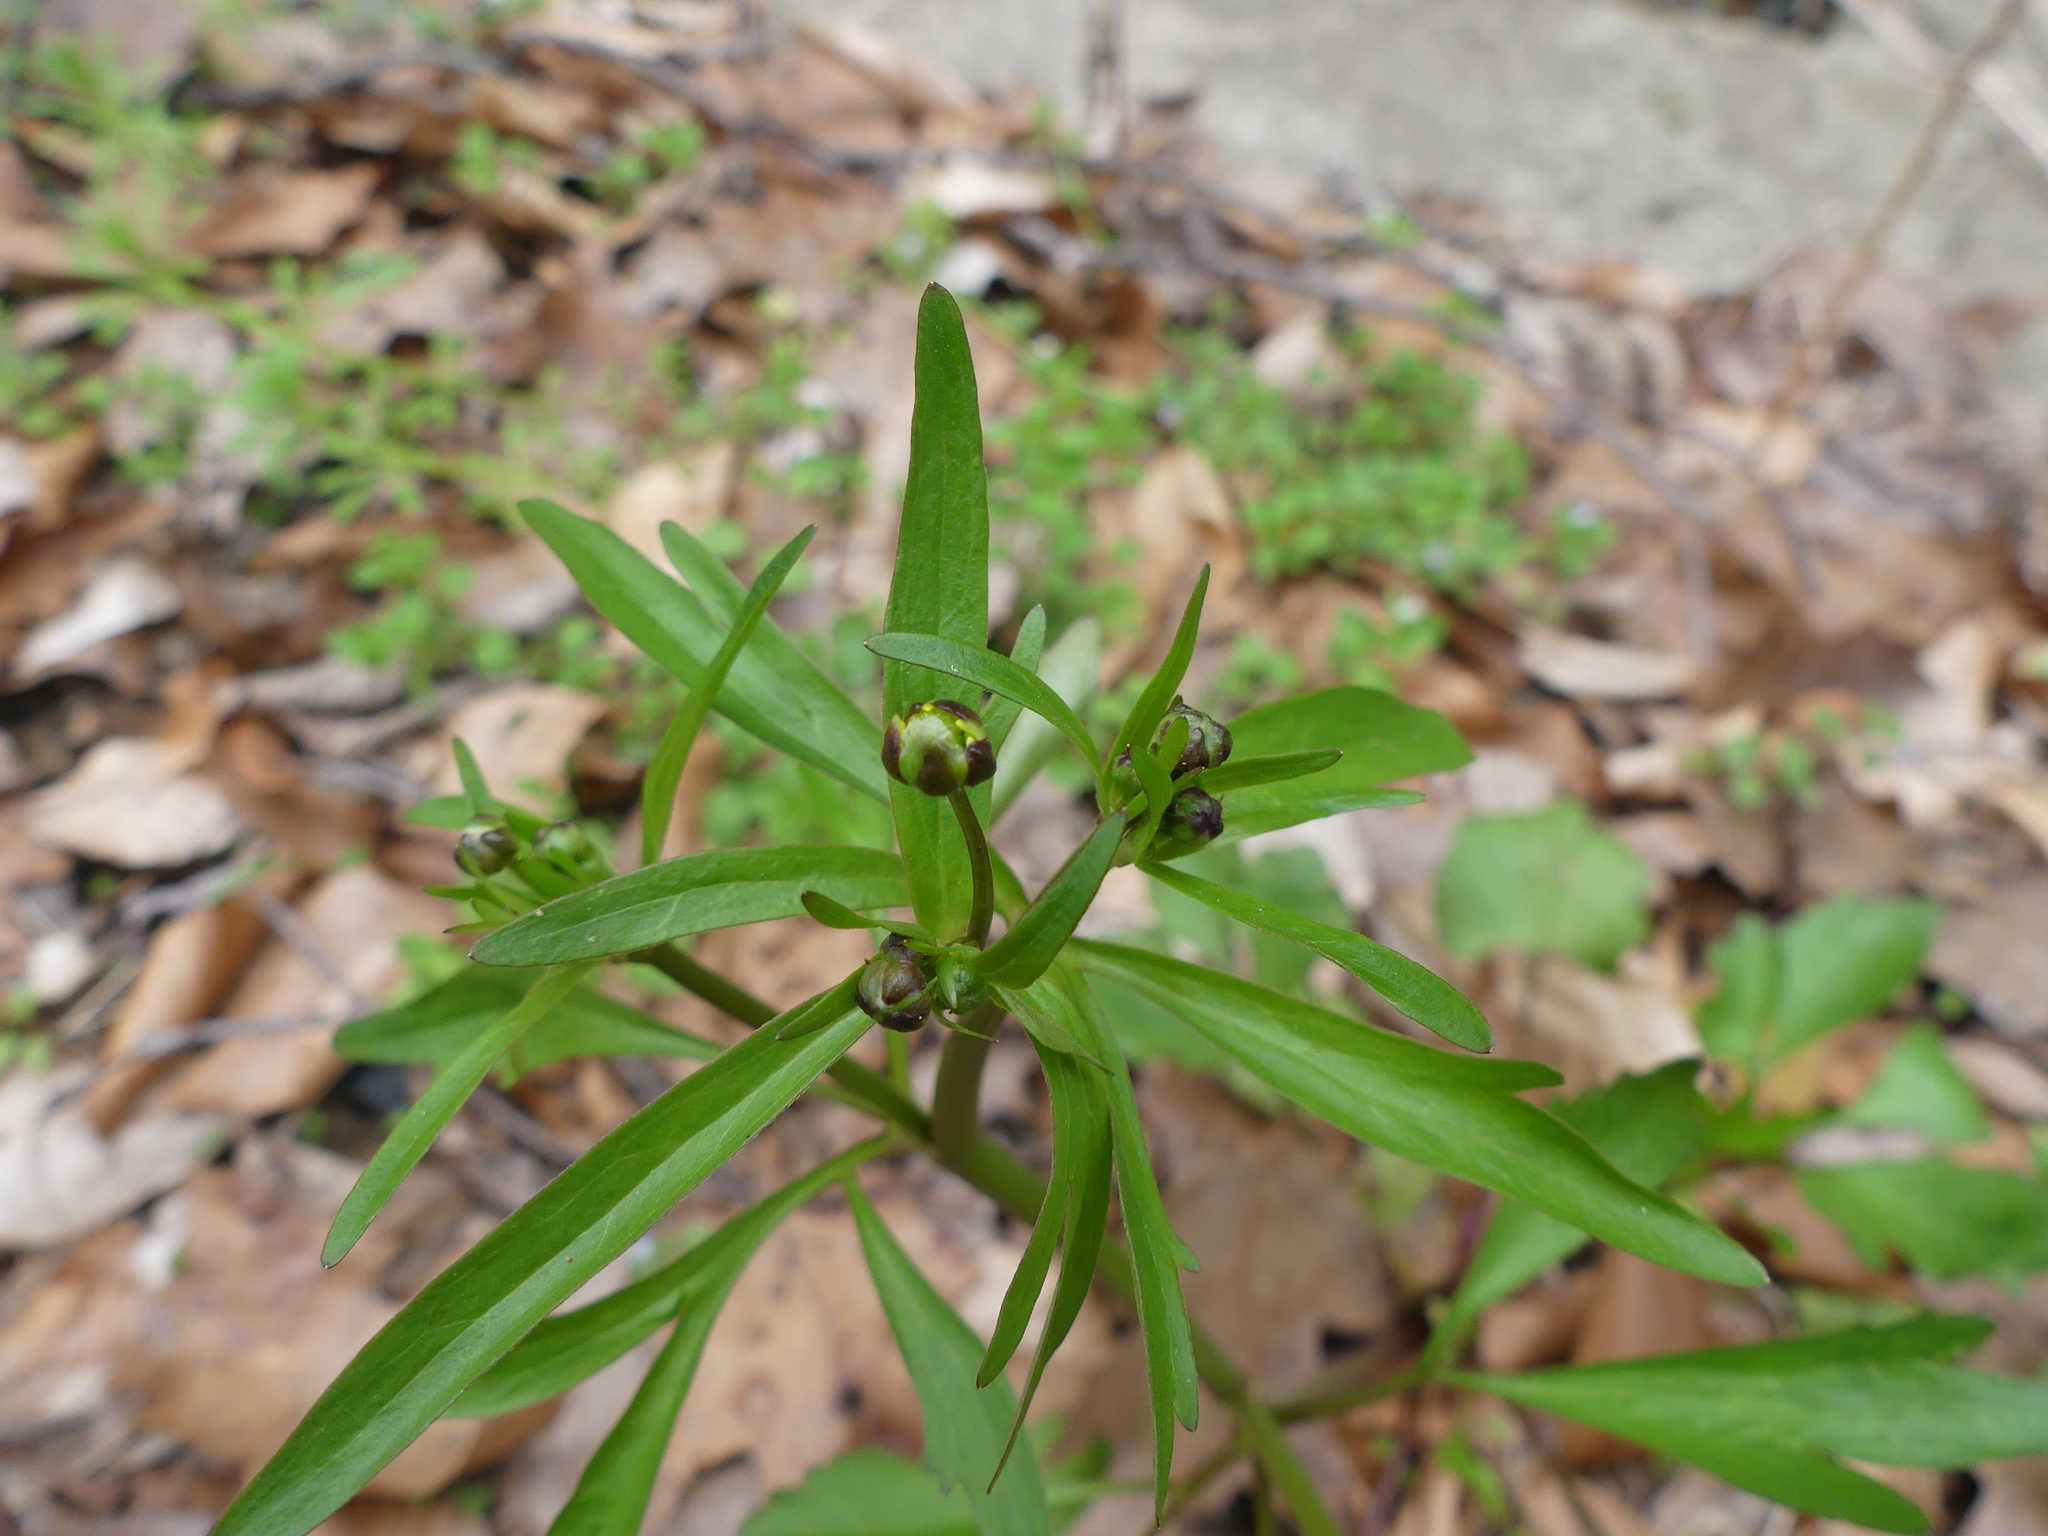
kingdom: Plantae
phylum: Tracheophyta
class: Magnoliopsida
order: Ranunculales
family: Ranunculaceae
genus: Ranunculus
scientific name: Ranunculus abortivus
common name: Early wood buttercup
